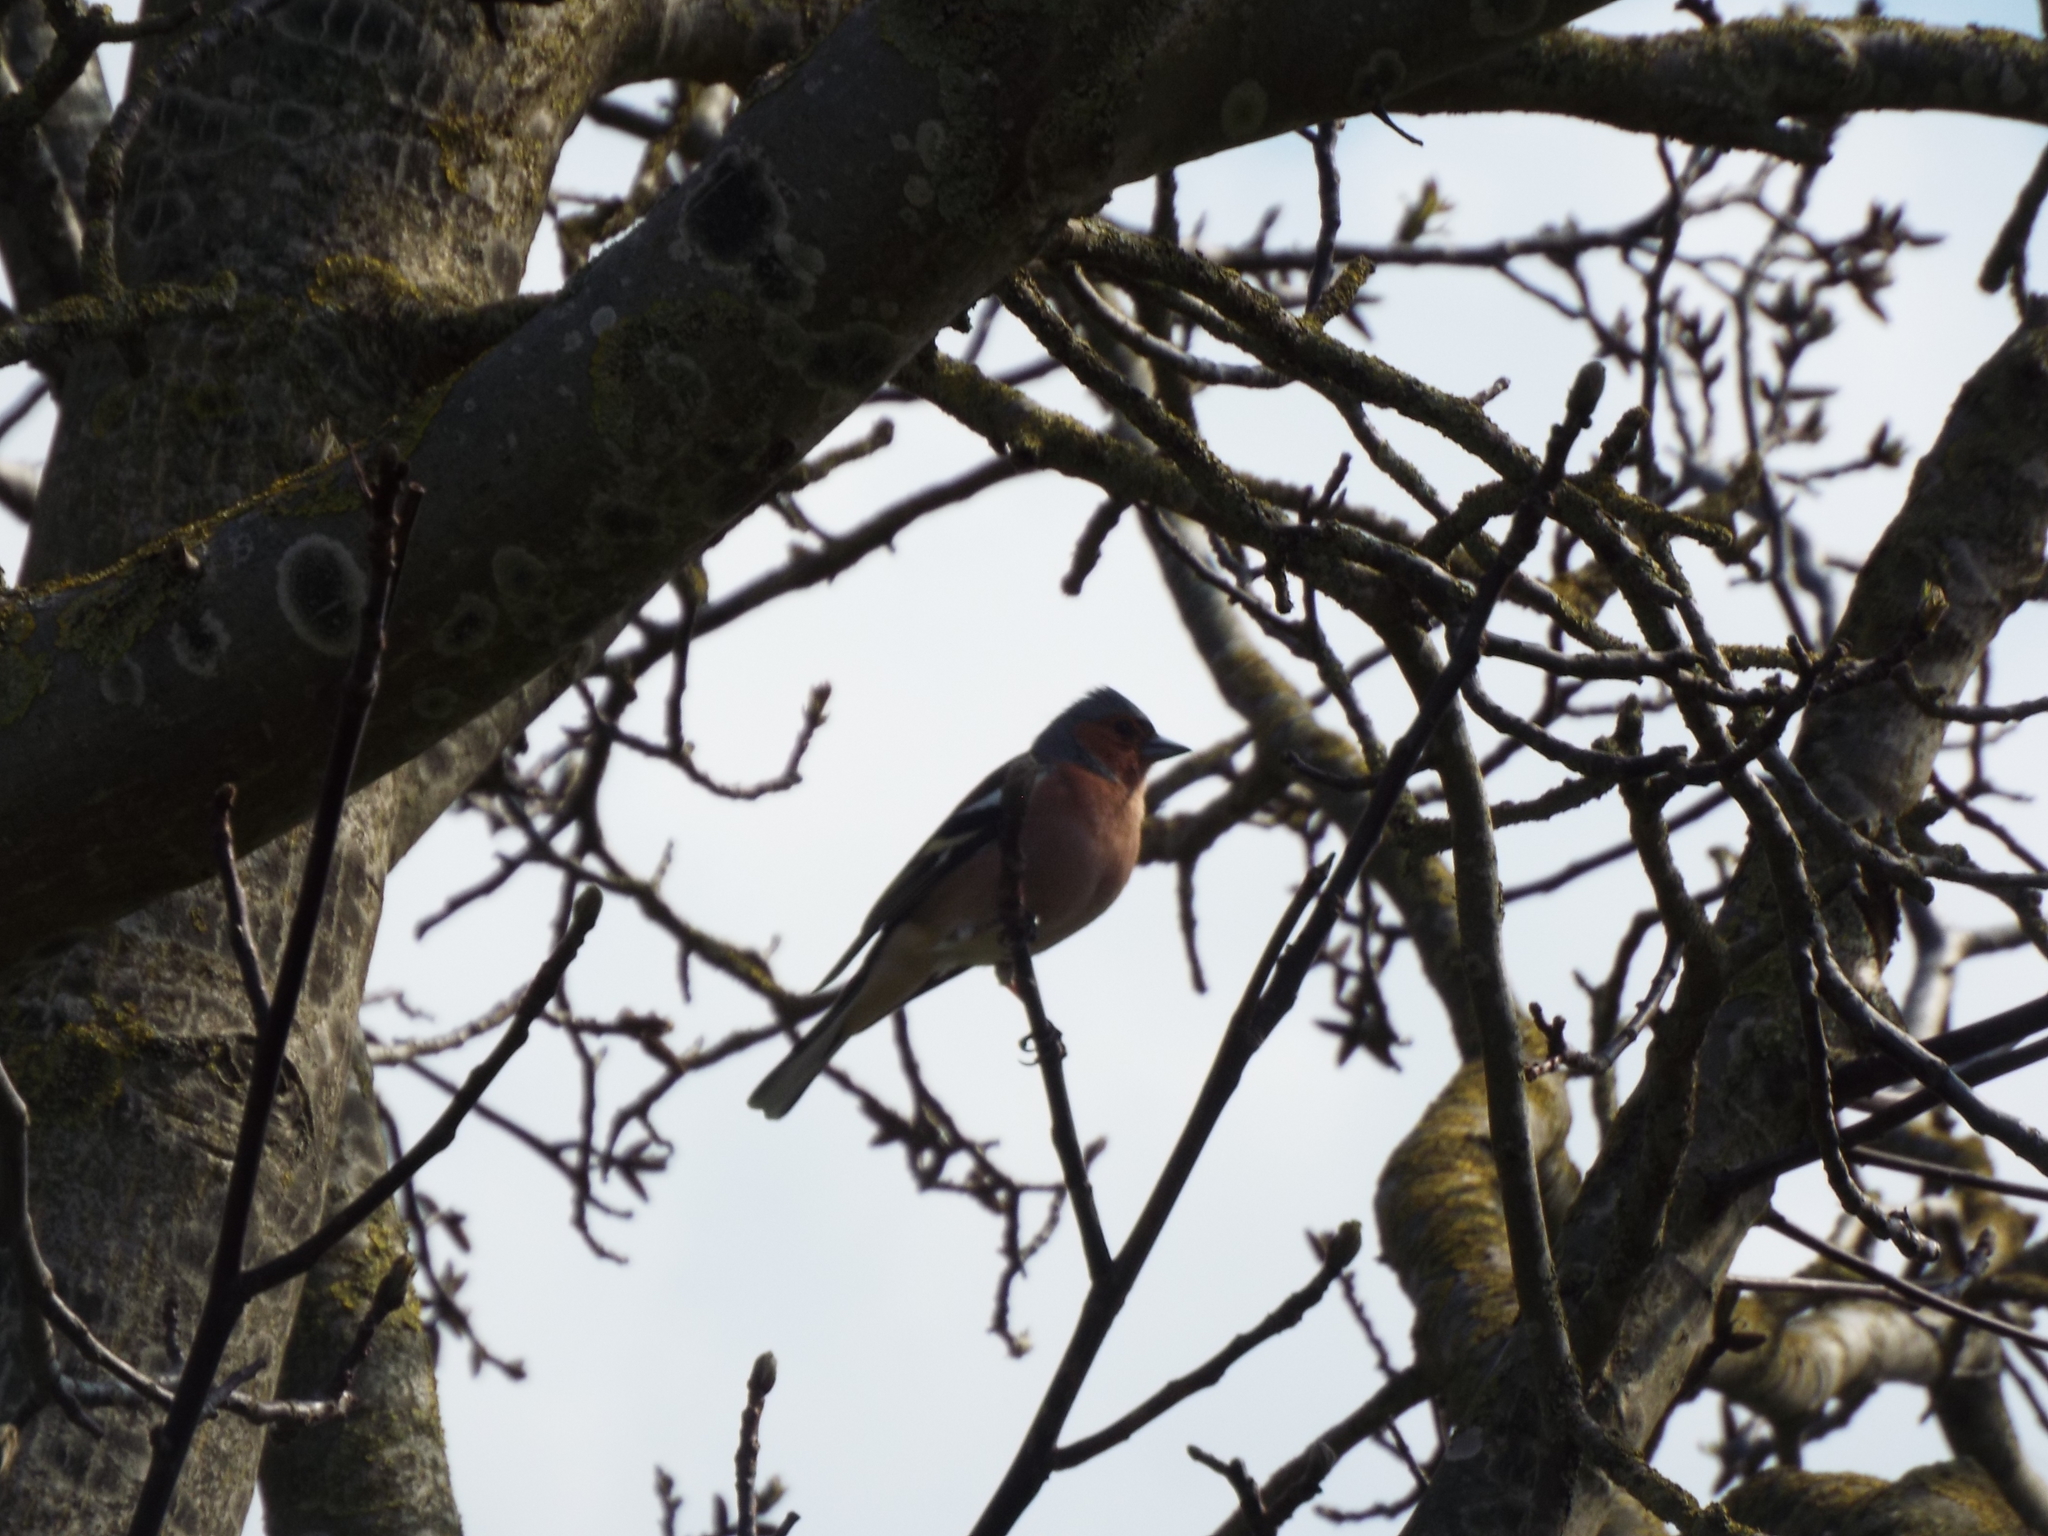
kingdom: Animalia
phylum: Chordata
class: Aves
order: Passeriformes
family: Fringillidae
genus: Fringilla
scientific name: Fringilla coelebs
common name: Common chaffinch
